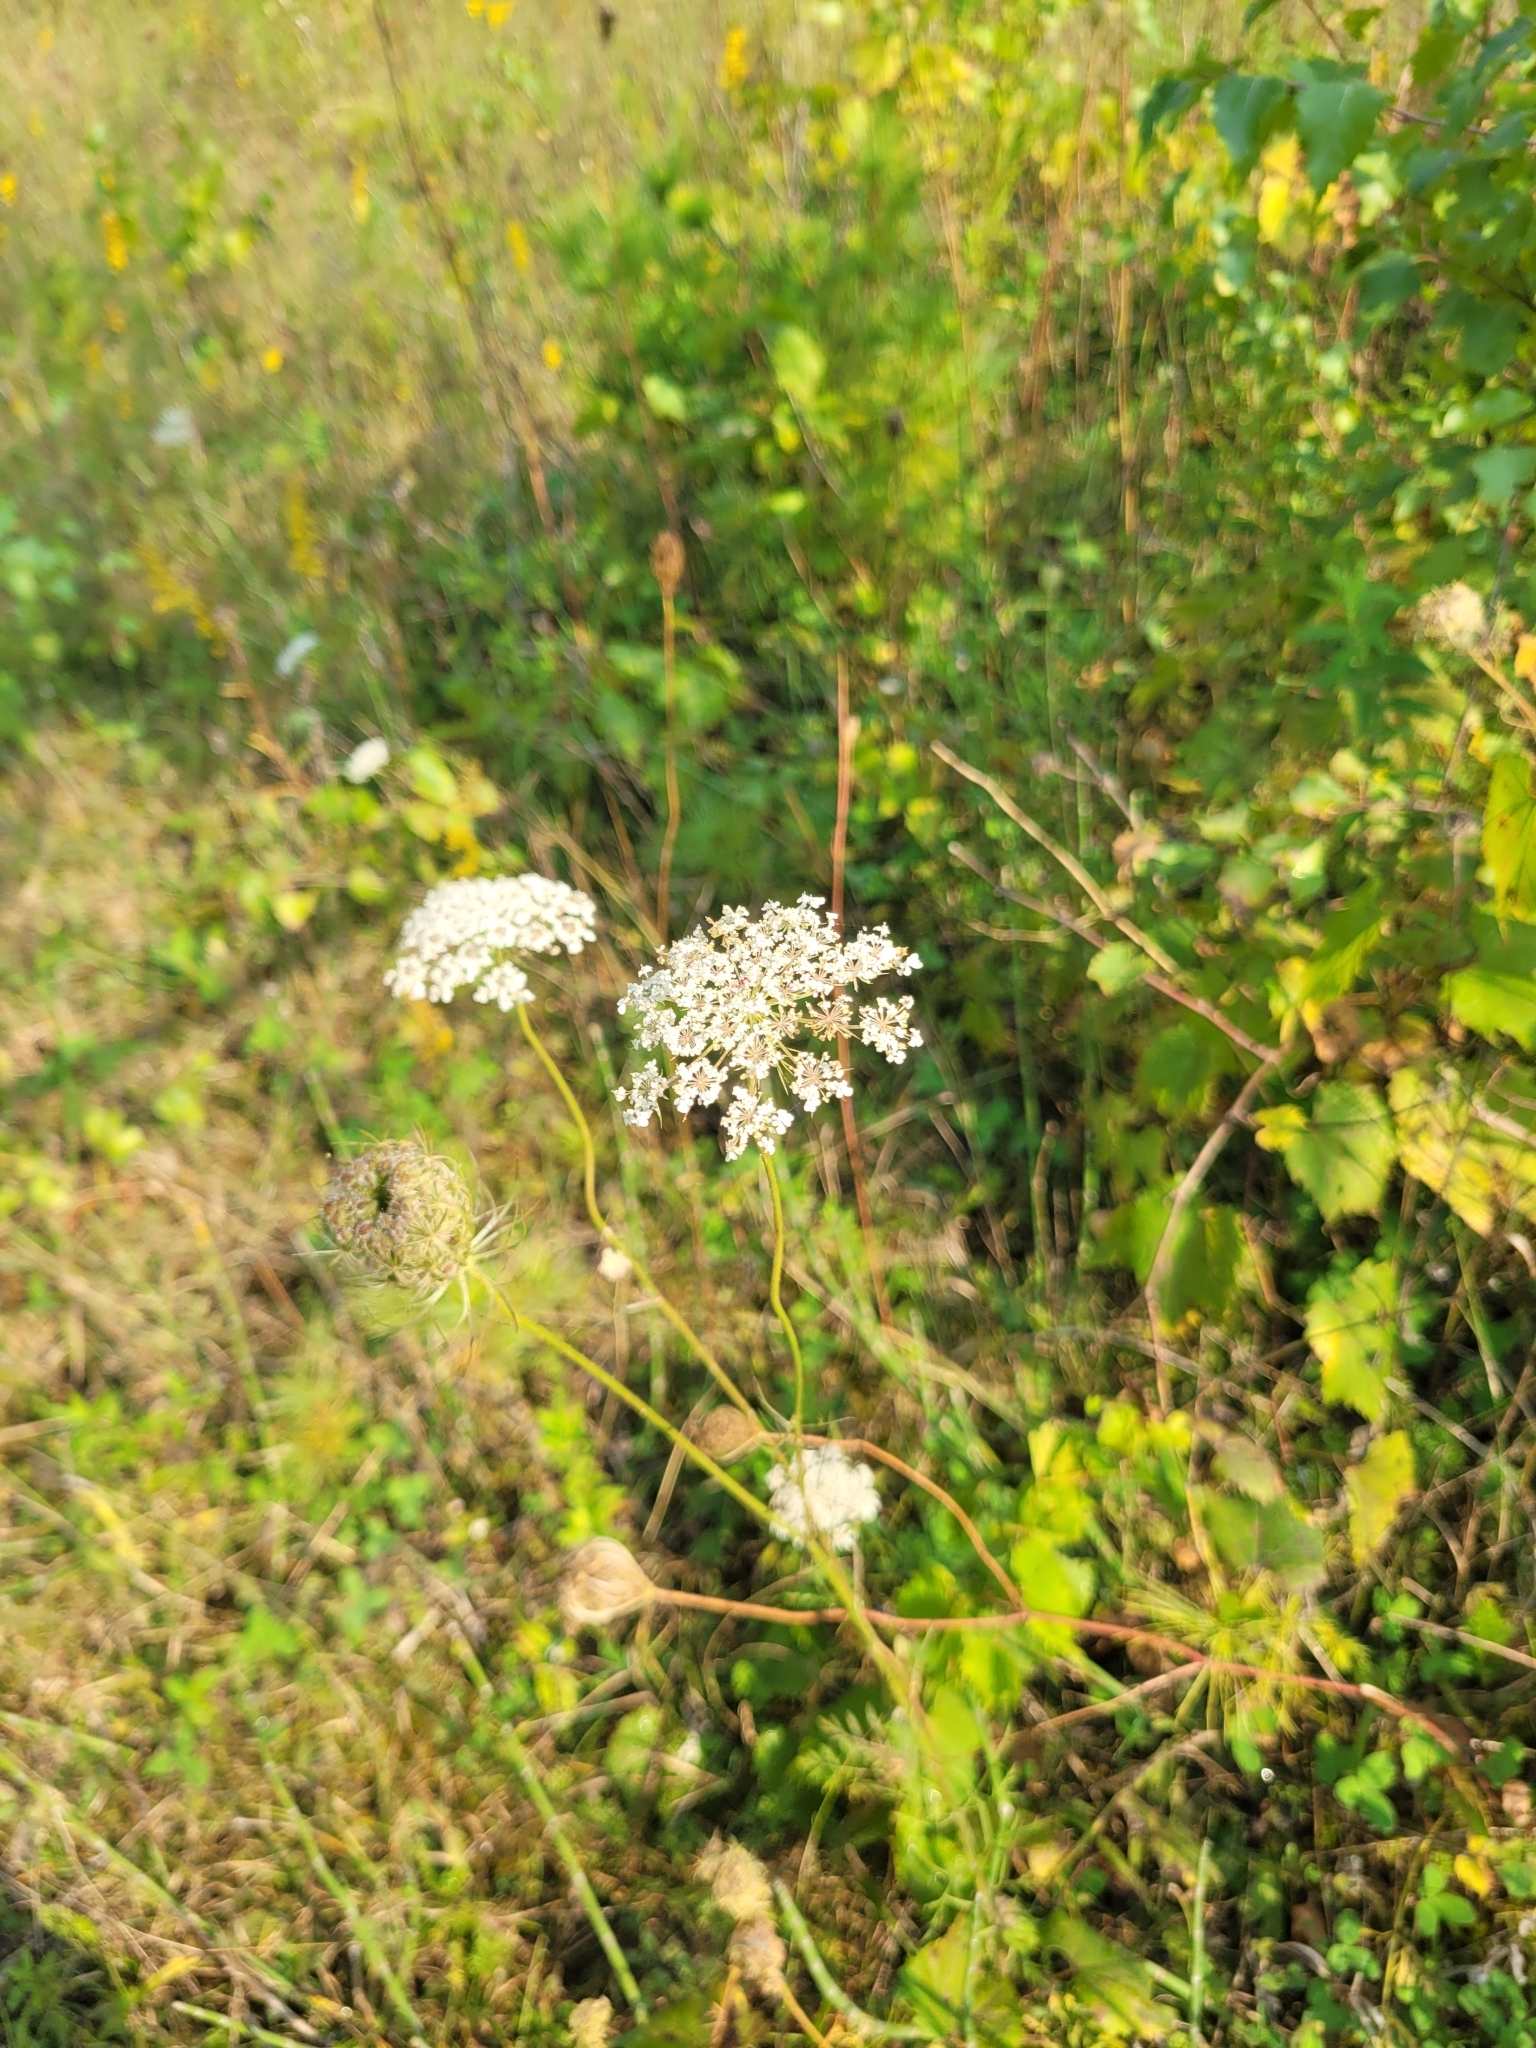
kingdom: Plantae
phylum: Tracheophyta
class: Magnoliopsida
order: Apiales
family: Apiaceae
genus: Daucus
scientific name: Daucus carota
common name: Wild carrot
